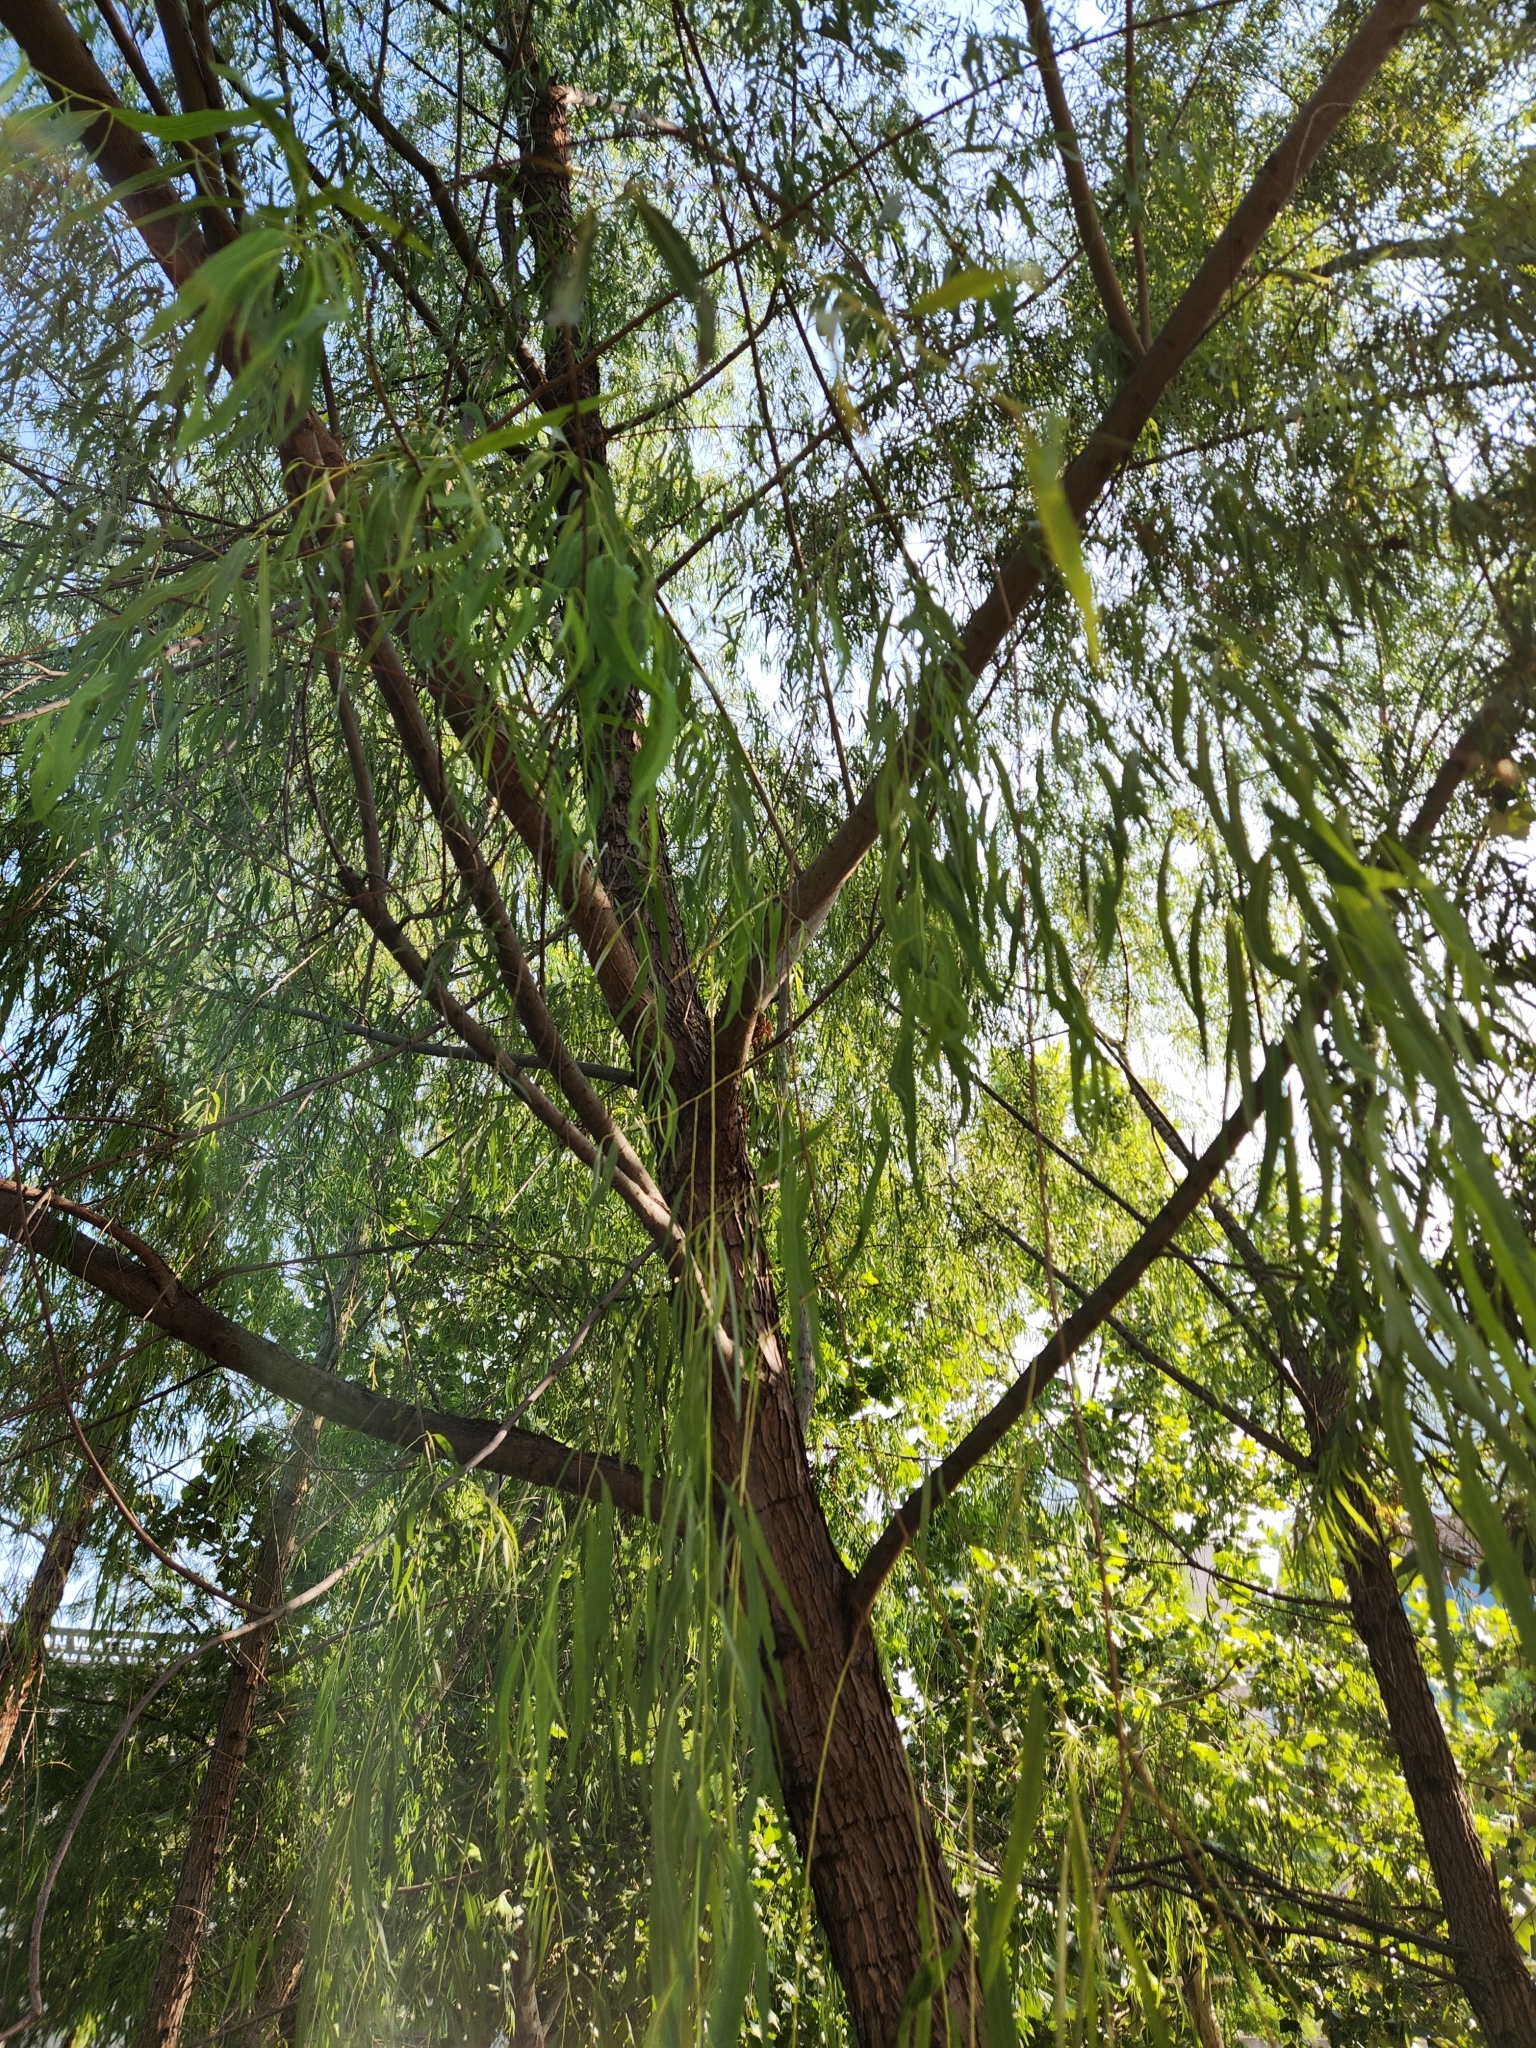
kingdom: Plantae
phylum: Tracheophyta
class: Magnoliopsida
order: Malpighiales
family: Salicaceae
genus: Salix
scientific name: Salix nigra
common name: Black willow
